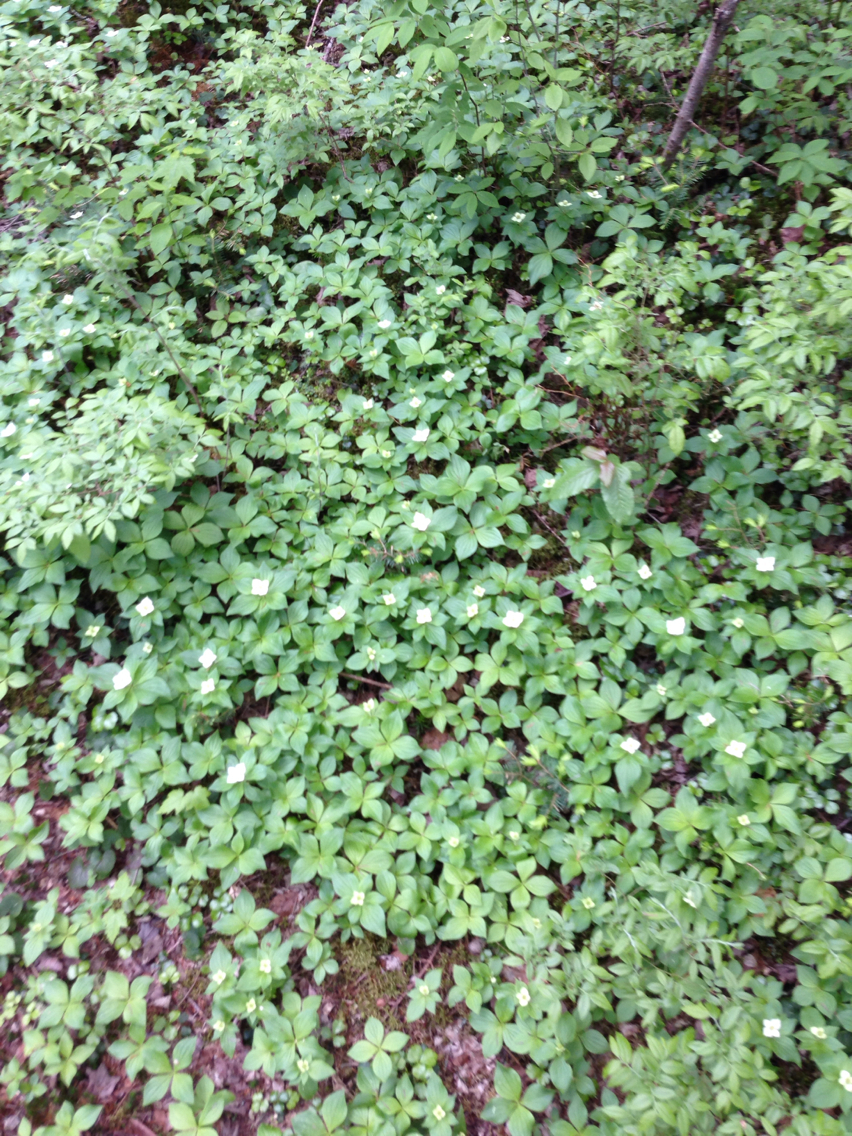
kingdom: Plantae
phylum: Tracheophyta
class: Magnoliopsida
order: Cornales
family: Cornaceae
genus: Cornus
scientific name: Cornus canadensis
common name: Creeping dogwood
